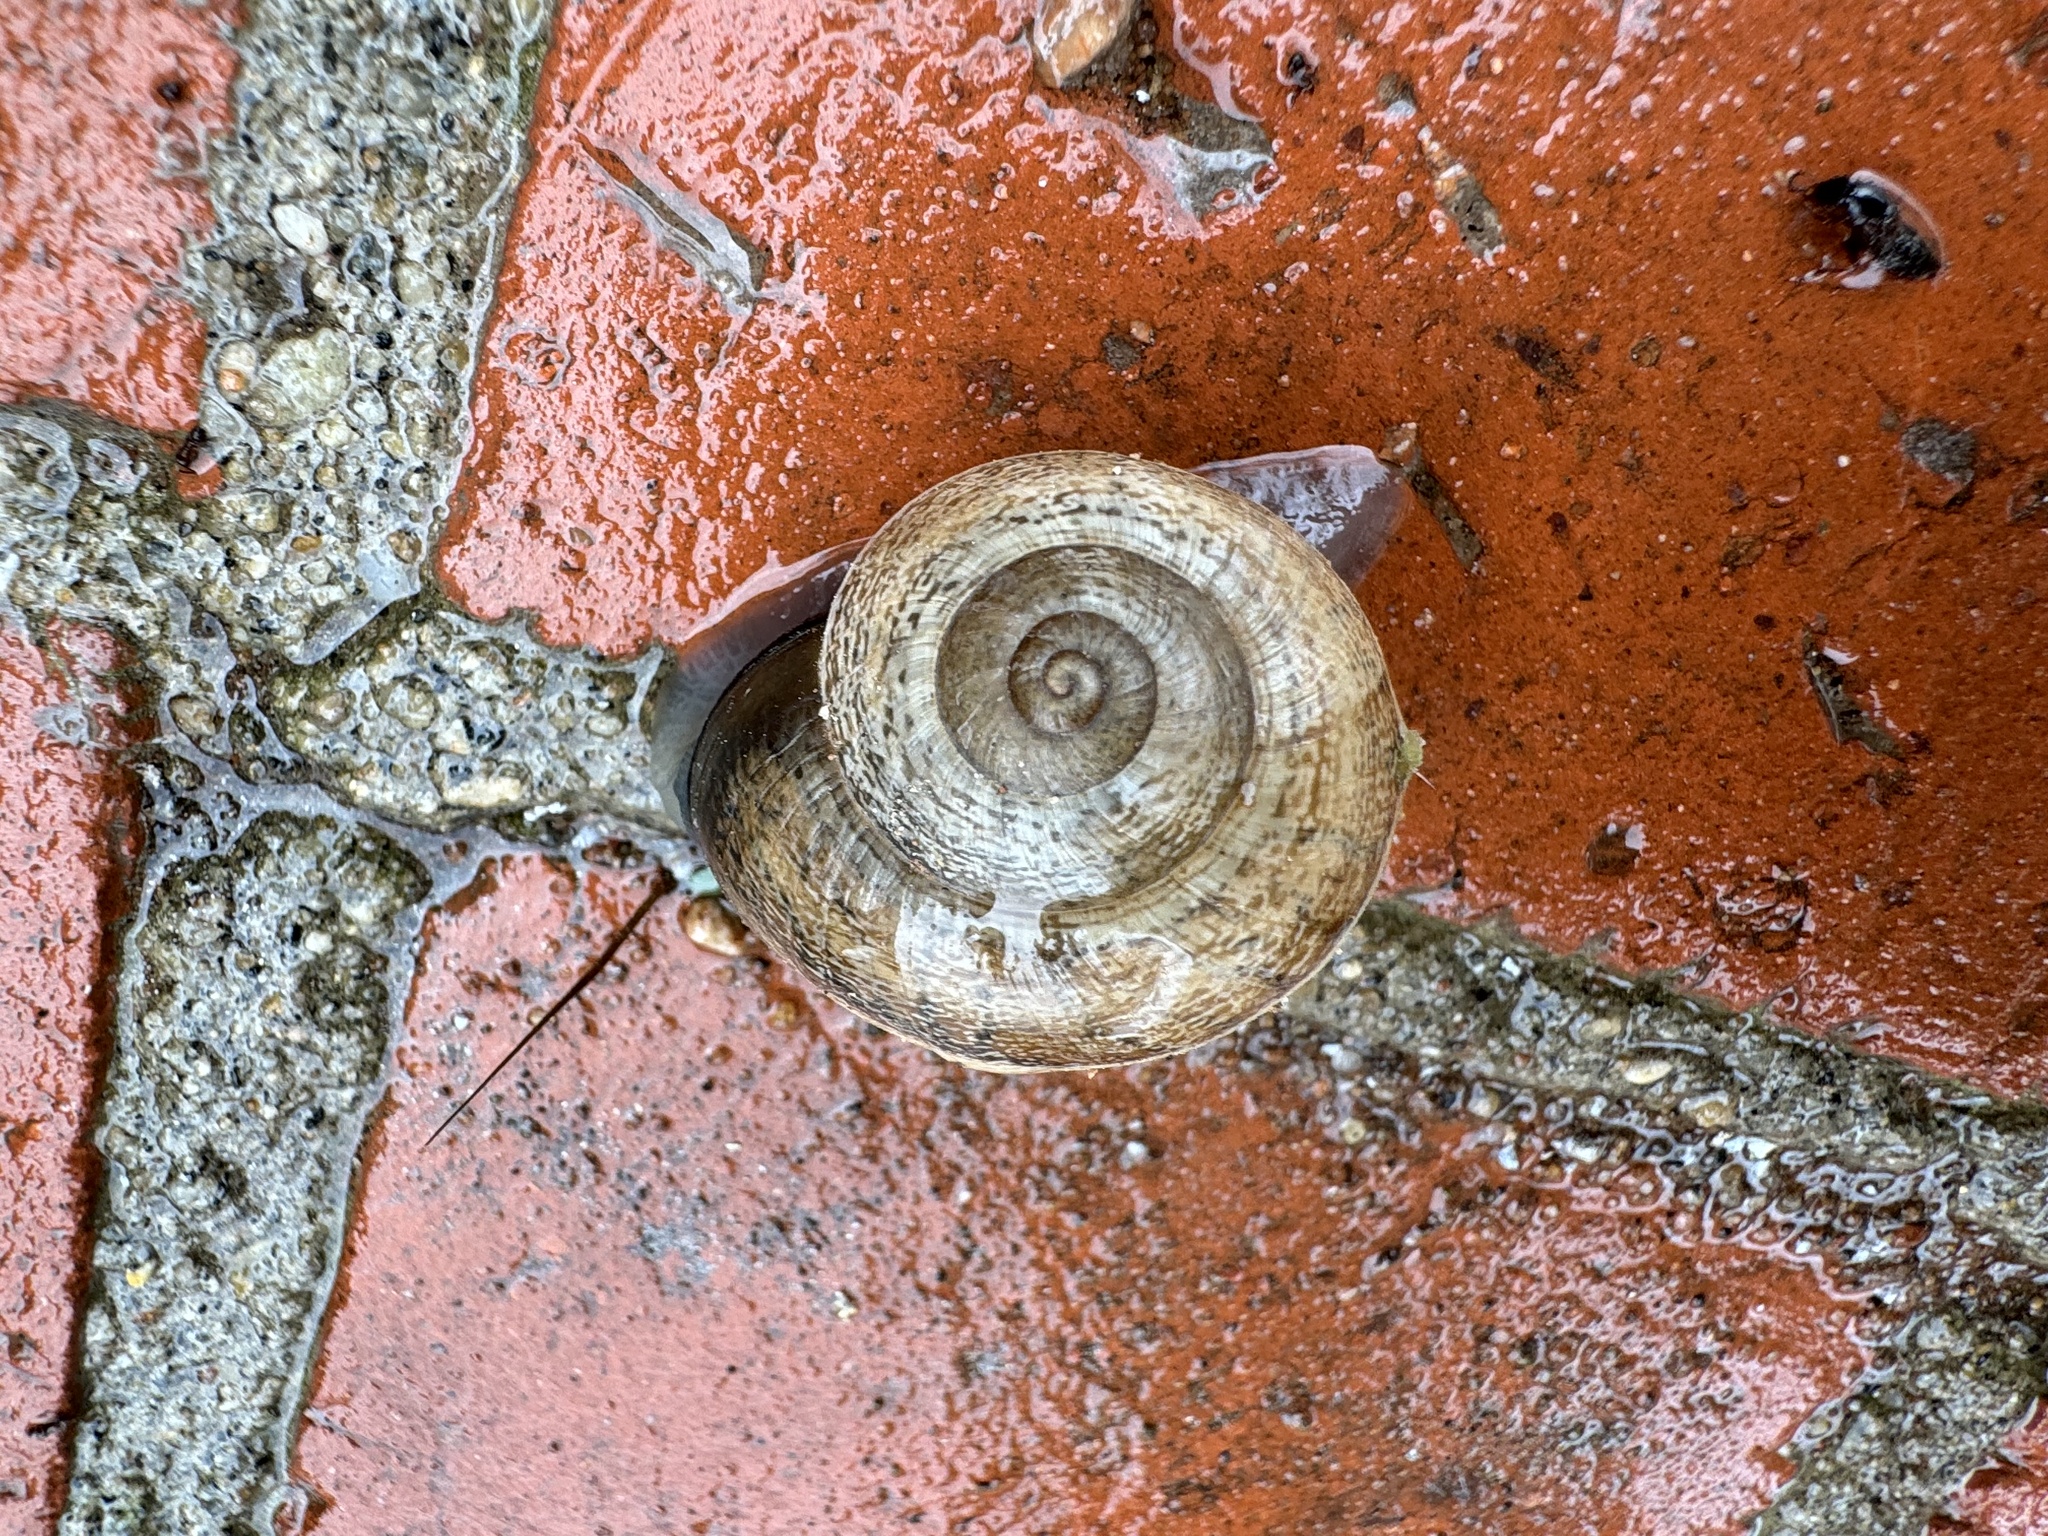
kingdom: Animalia
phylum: Mollusca
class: Gastropoda
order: Stylommatophora
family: Helicidae
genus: Otala
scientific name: Otala lactea
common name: Milk snail
